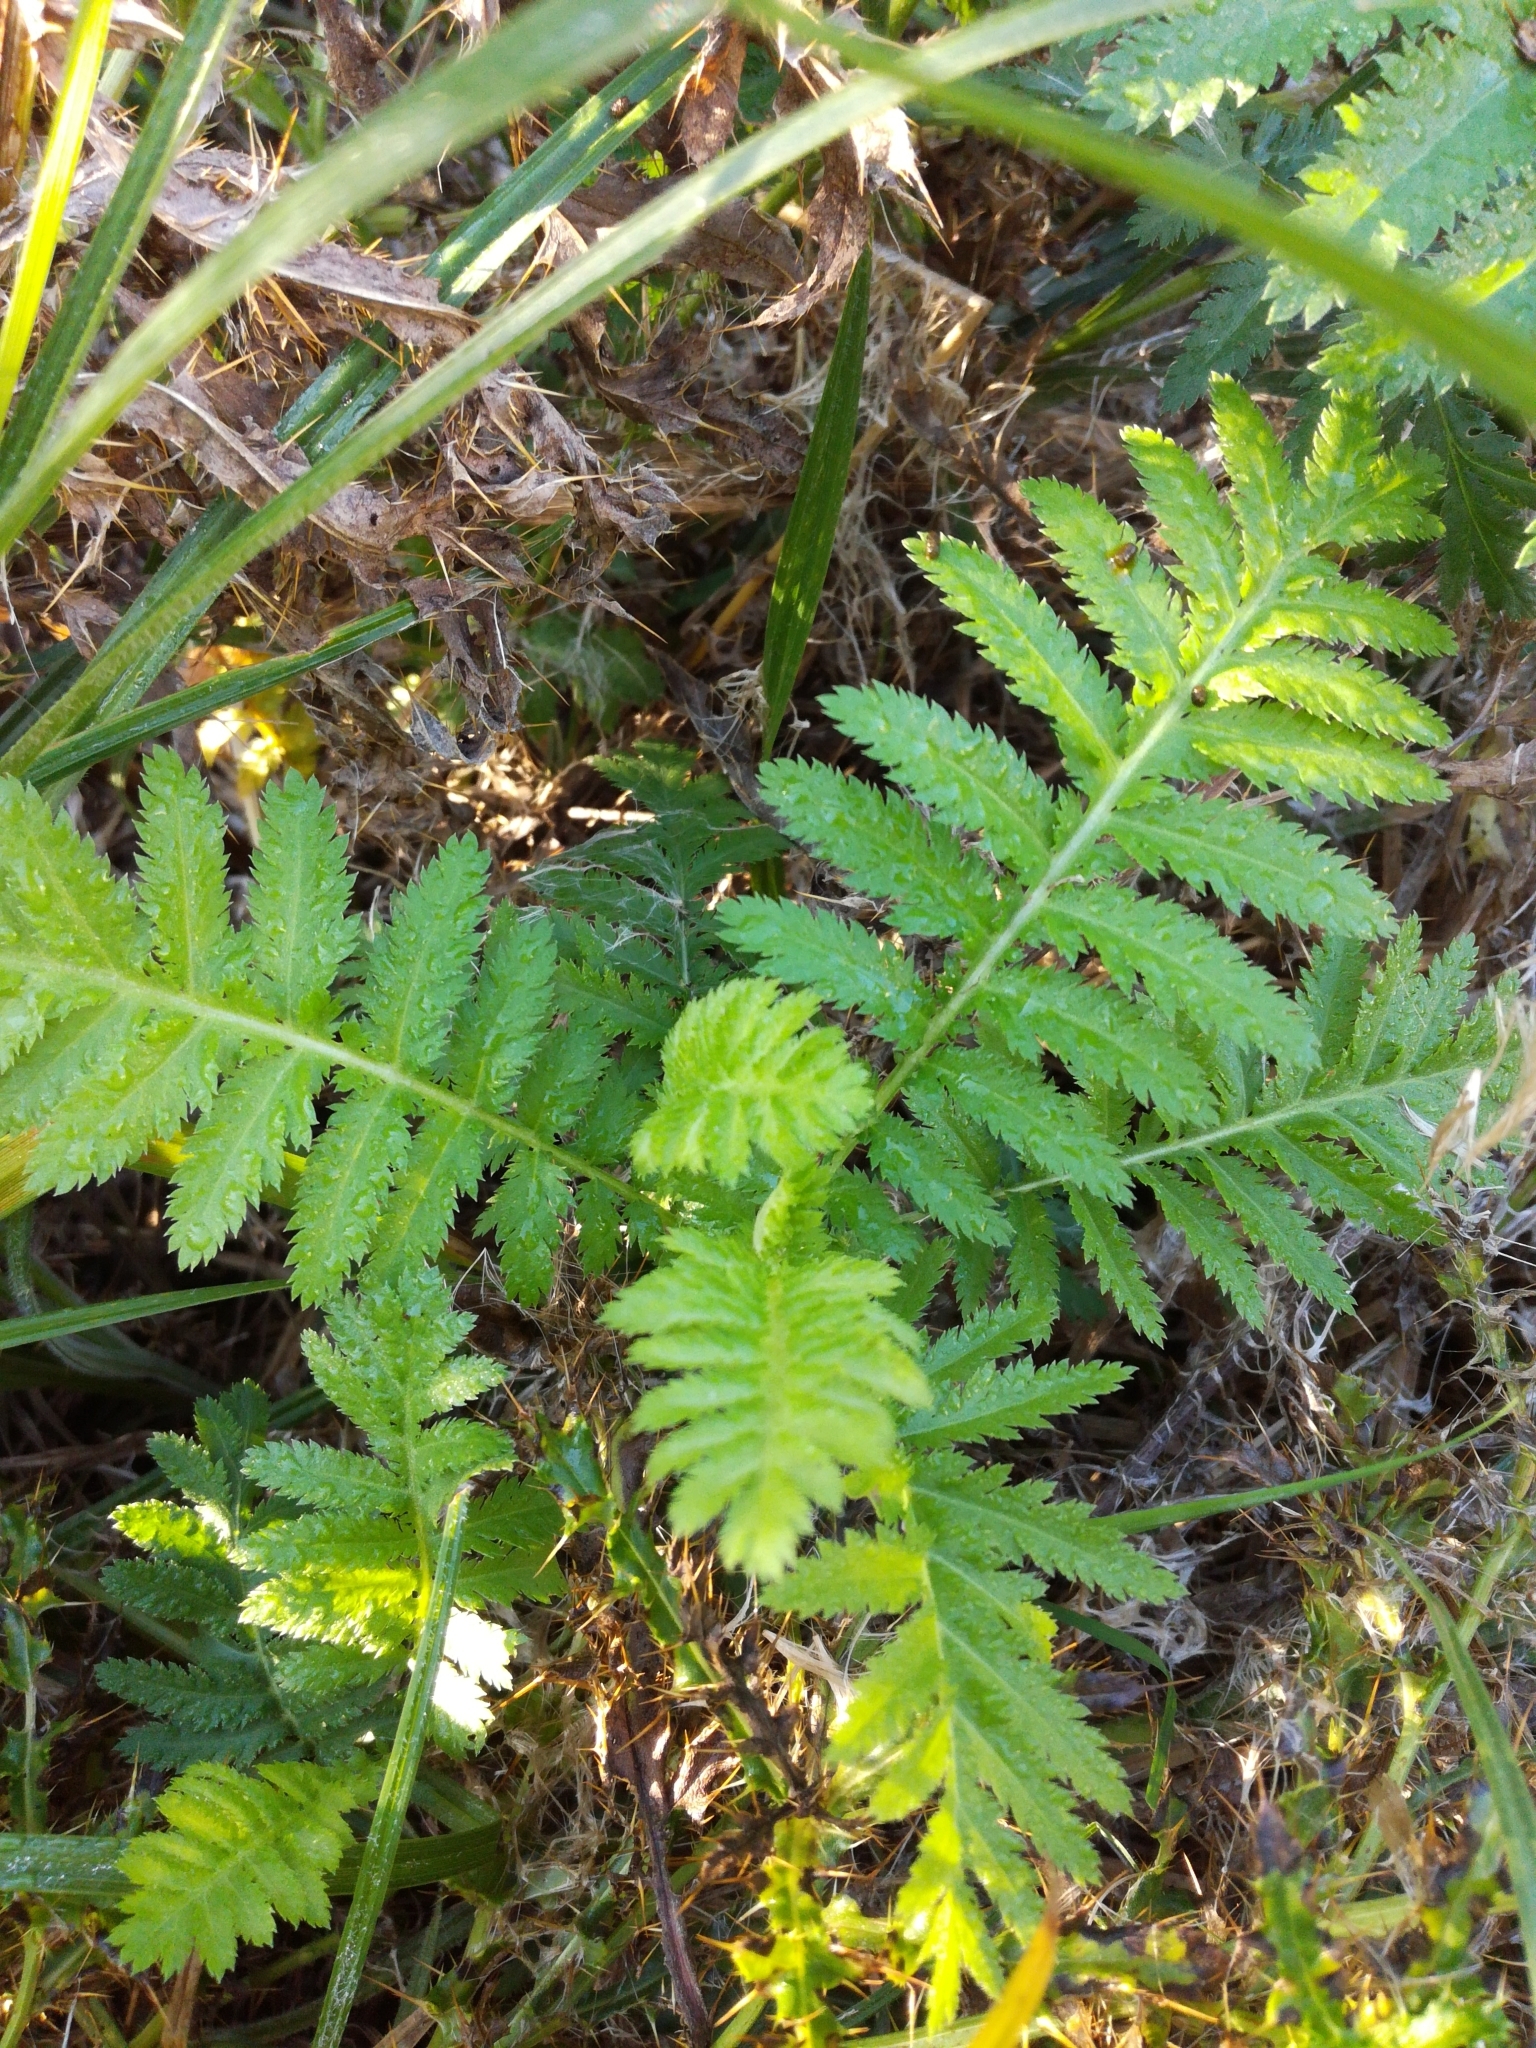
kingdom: Plantae
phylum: Tracheophyta
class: Magnoliopsida
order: Asterales
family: Asteraceae
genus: Tanacetum
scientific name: Tanacetum vulgare
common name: Common tansy
